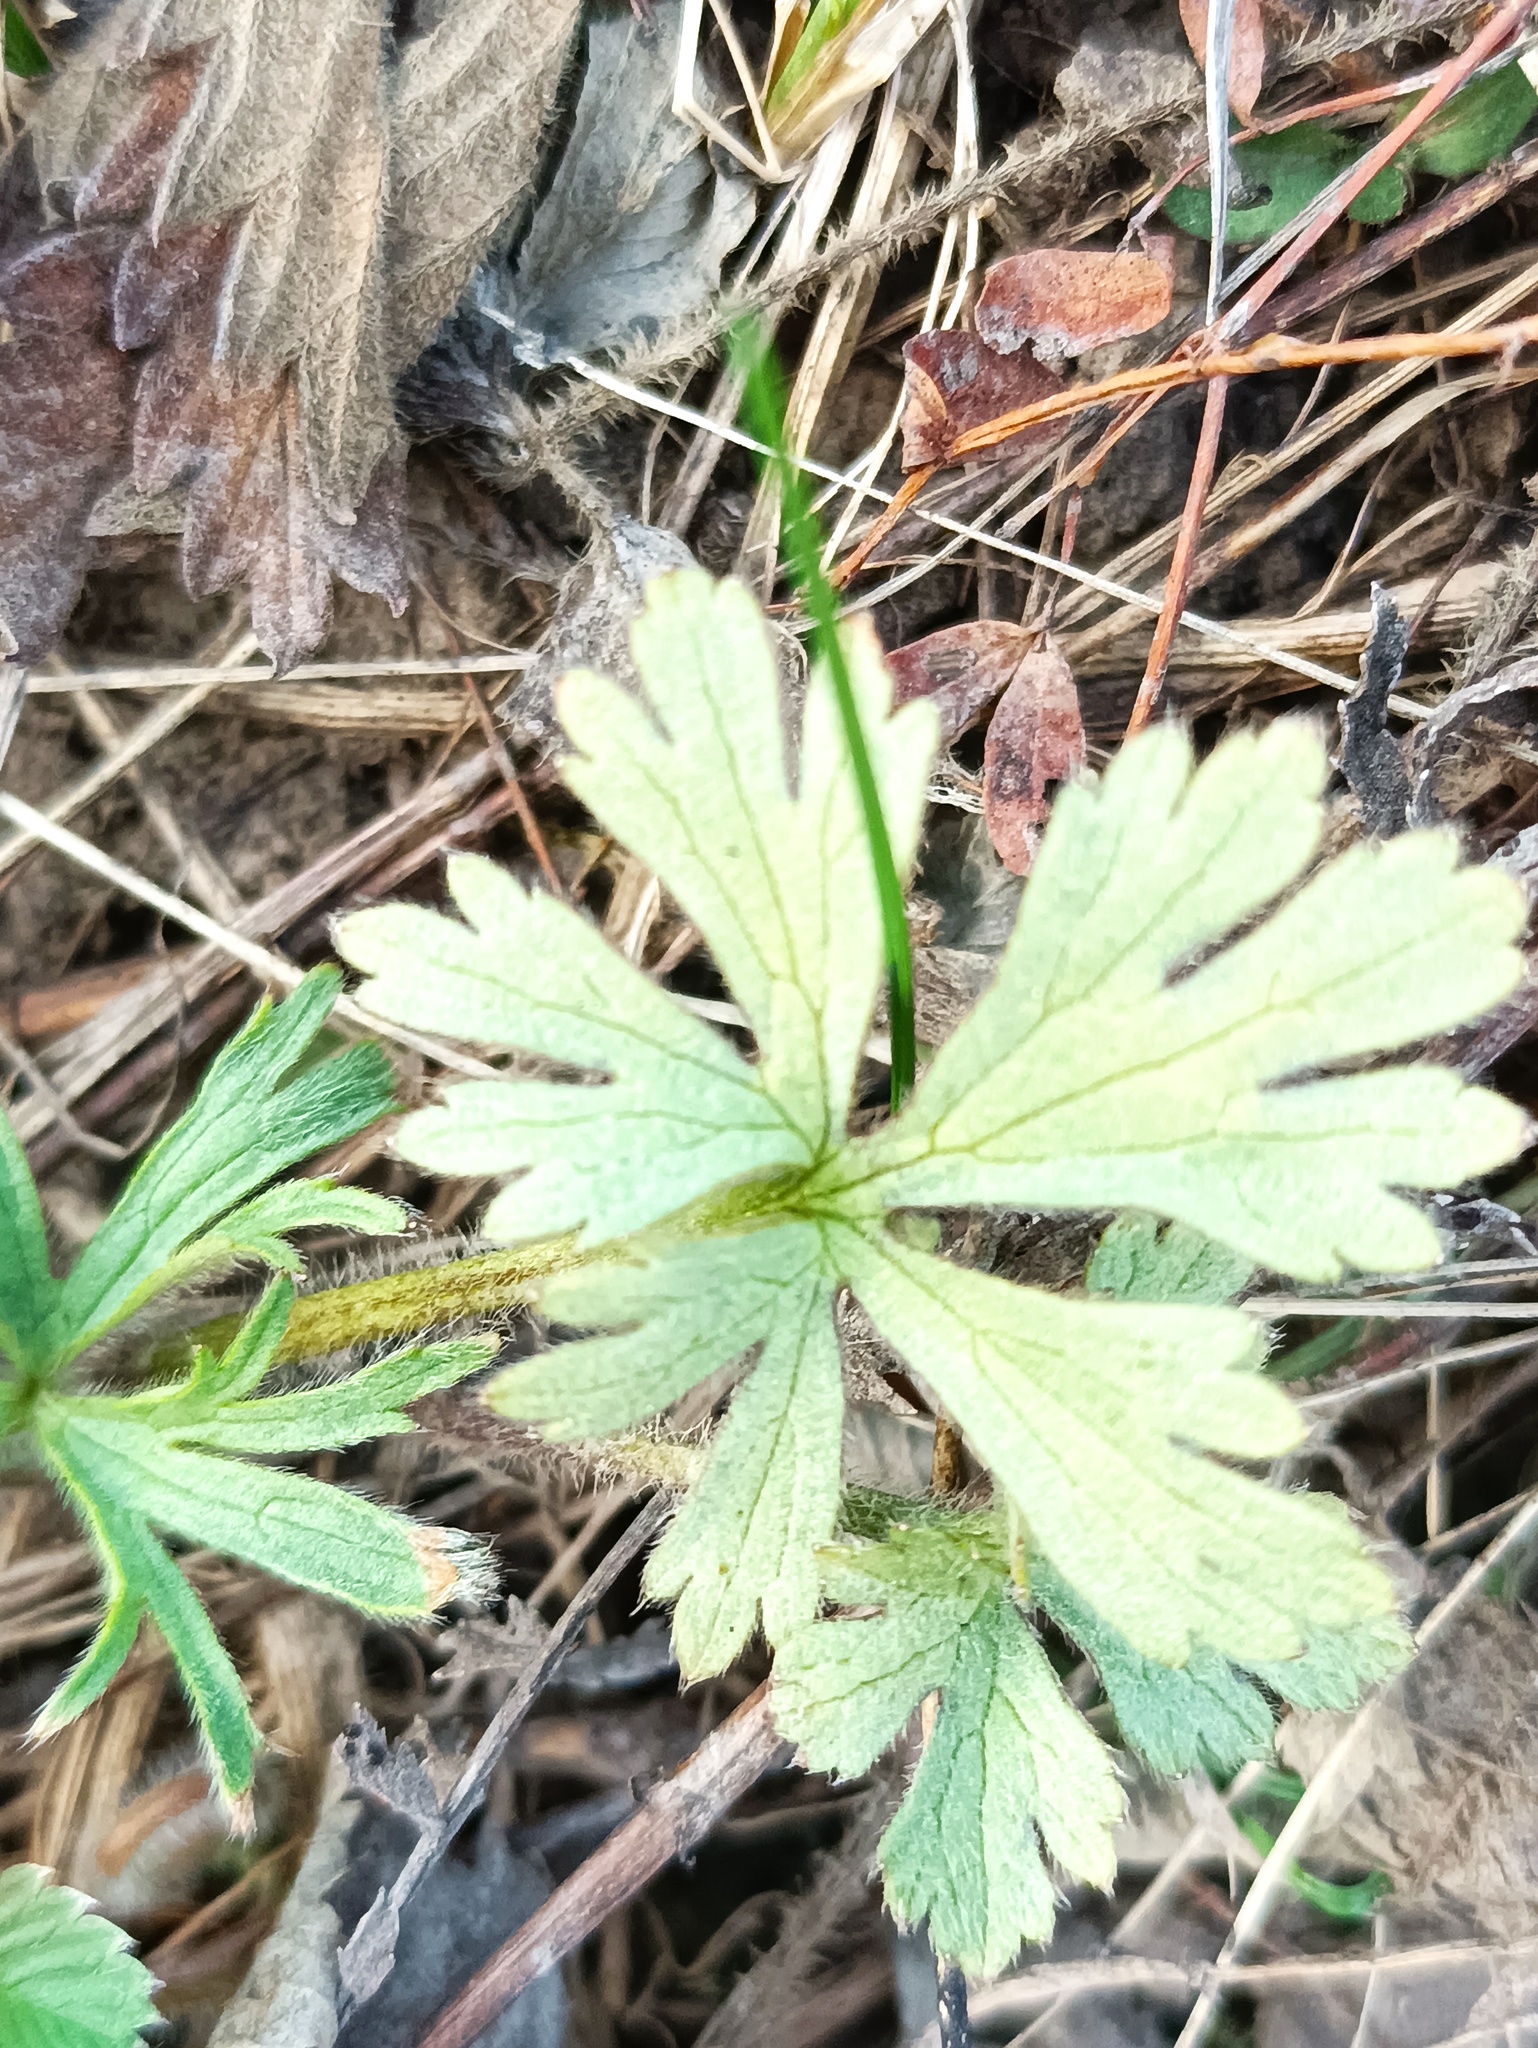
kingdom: Plantae
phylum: Tracheophyta
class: Magnoliopsida
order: Ranunculales
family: Ranunculaceae
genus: Ranunculus
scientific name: Ranunculus polyanthemos
